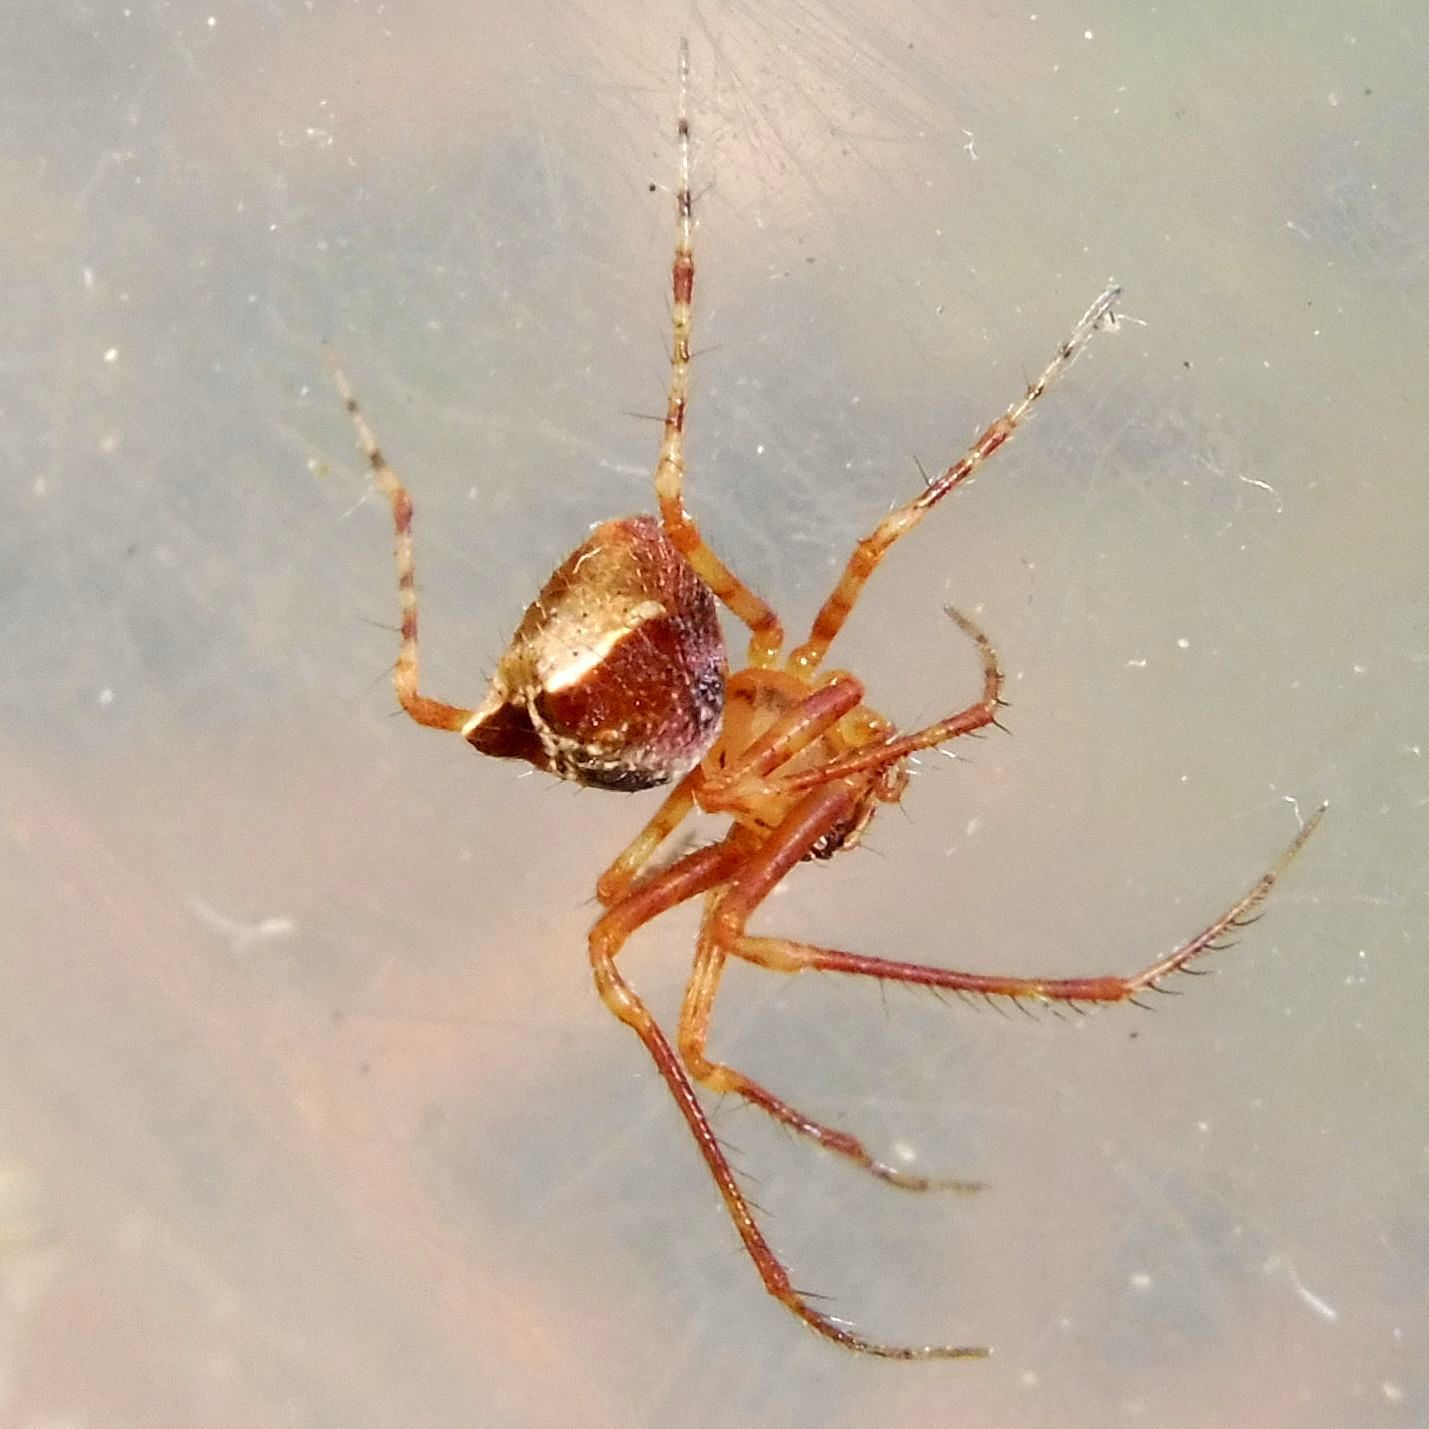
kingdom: Animalia
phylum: Arthropoda
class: Arachnida
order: Araneae
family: Mimetidae
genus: Ero
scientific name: Ero tuberculata
